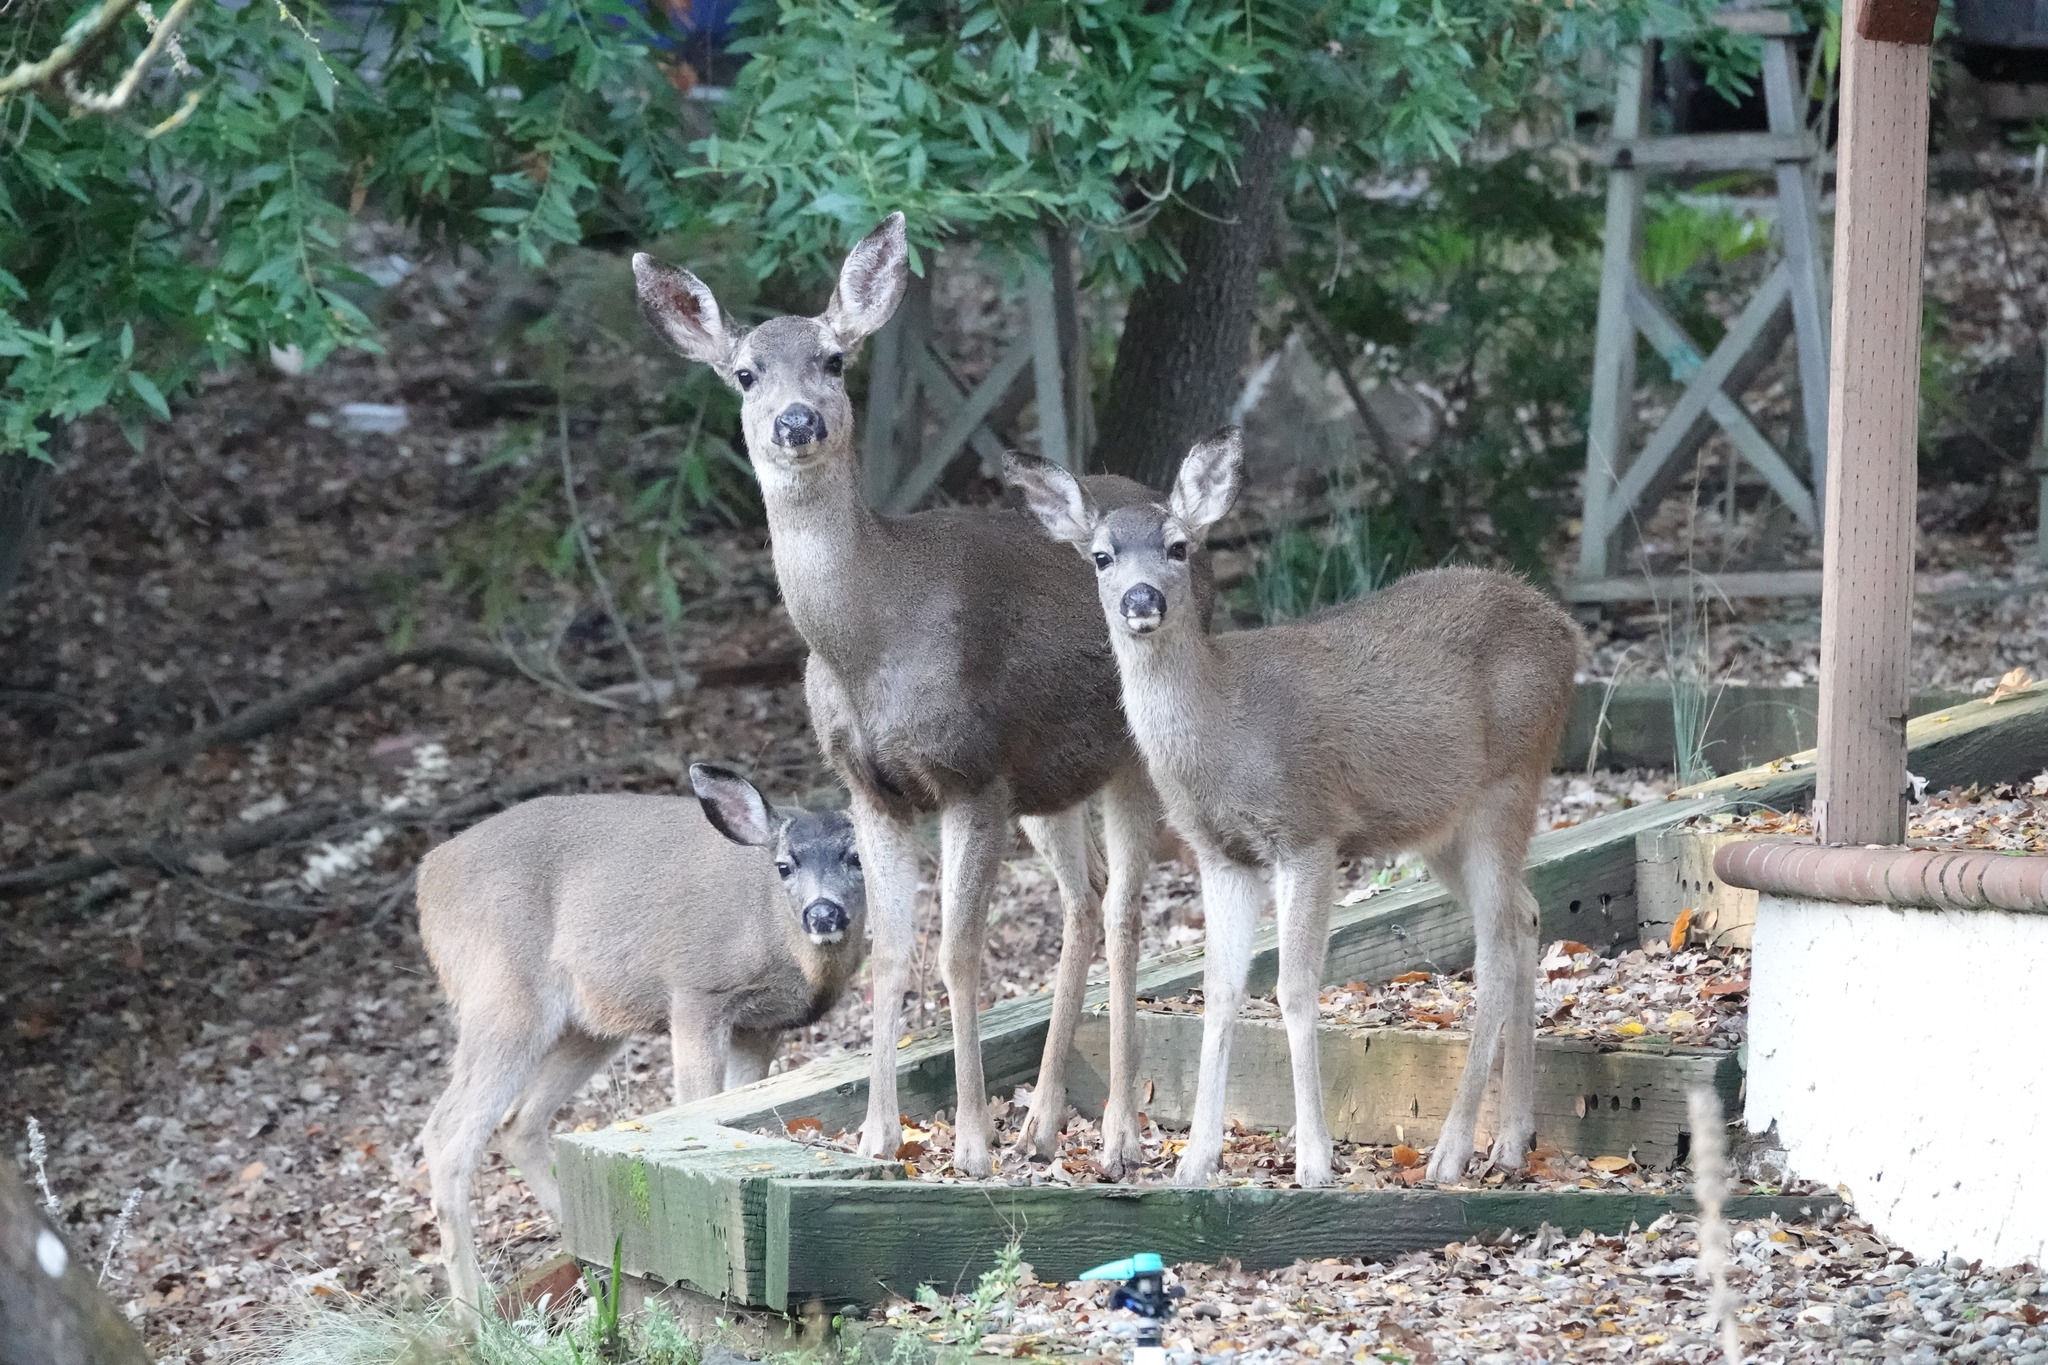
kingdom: Animalia
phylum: Chordata
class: Mammalia
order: Artiodactyla
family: Cervidae
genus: Odocoileus
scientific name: Odocoileus hemionus
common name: Mule deer
